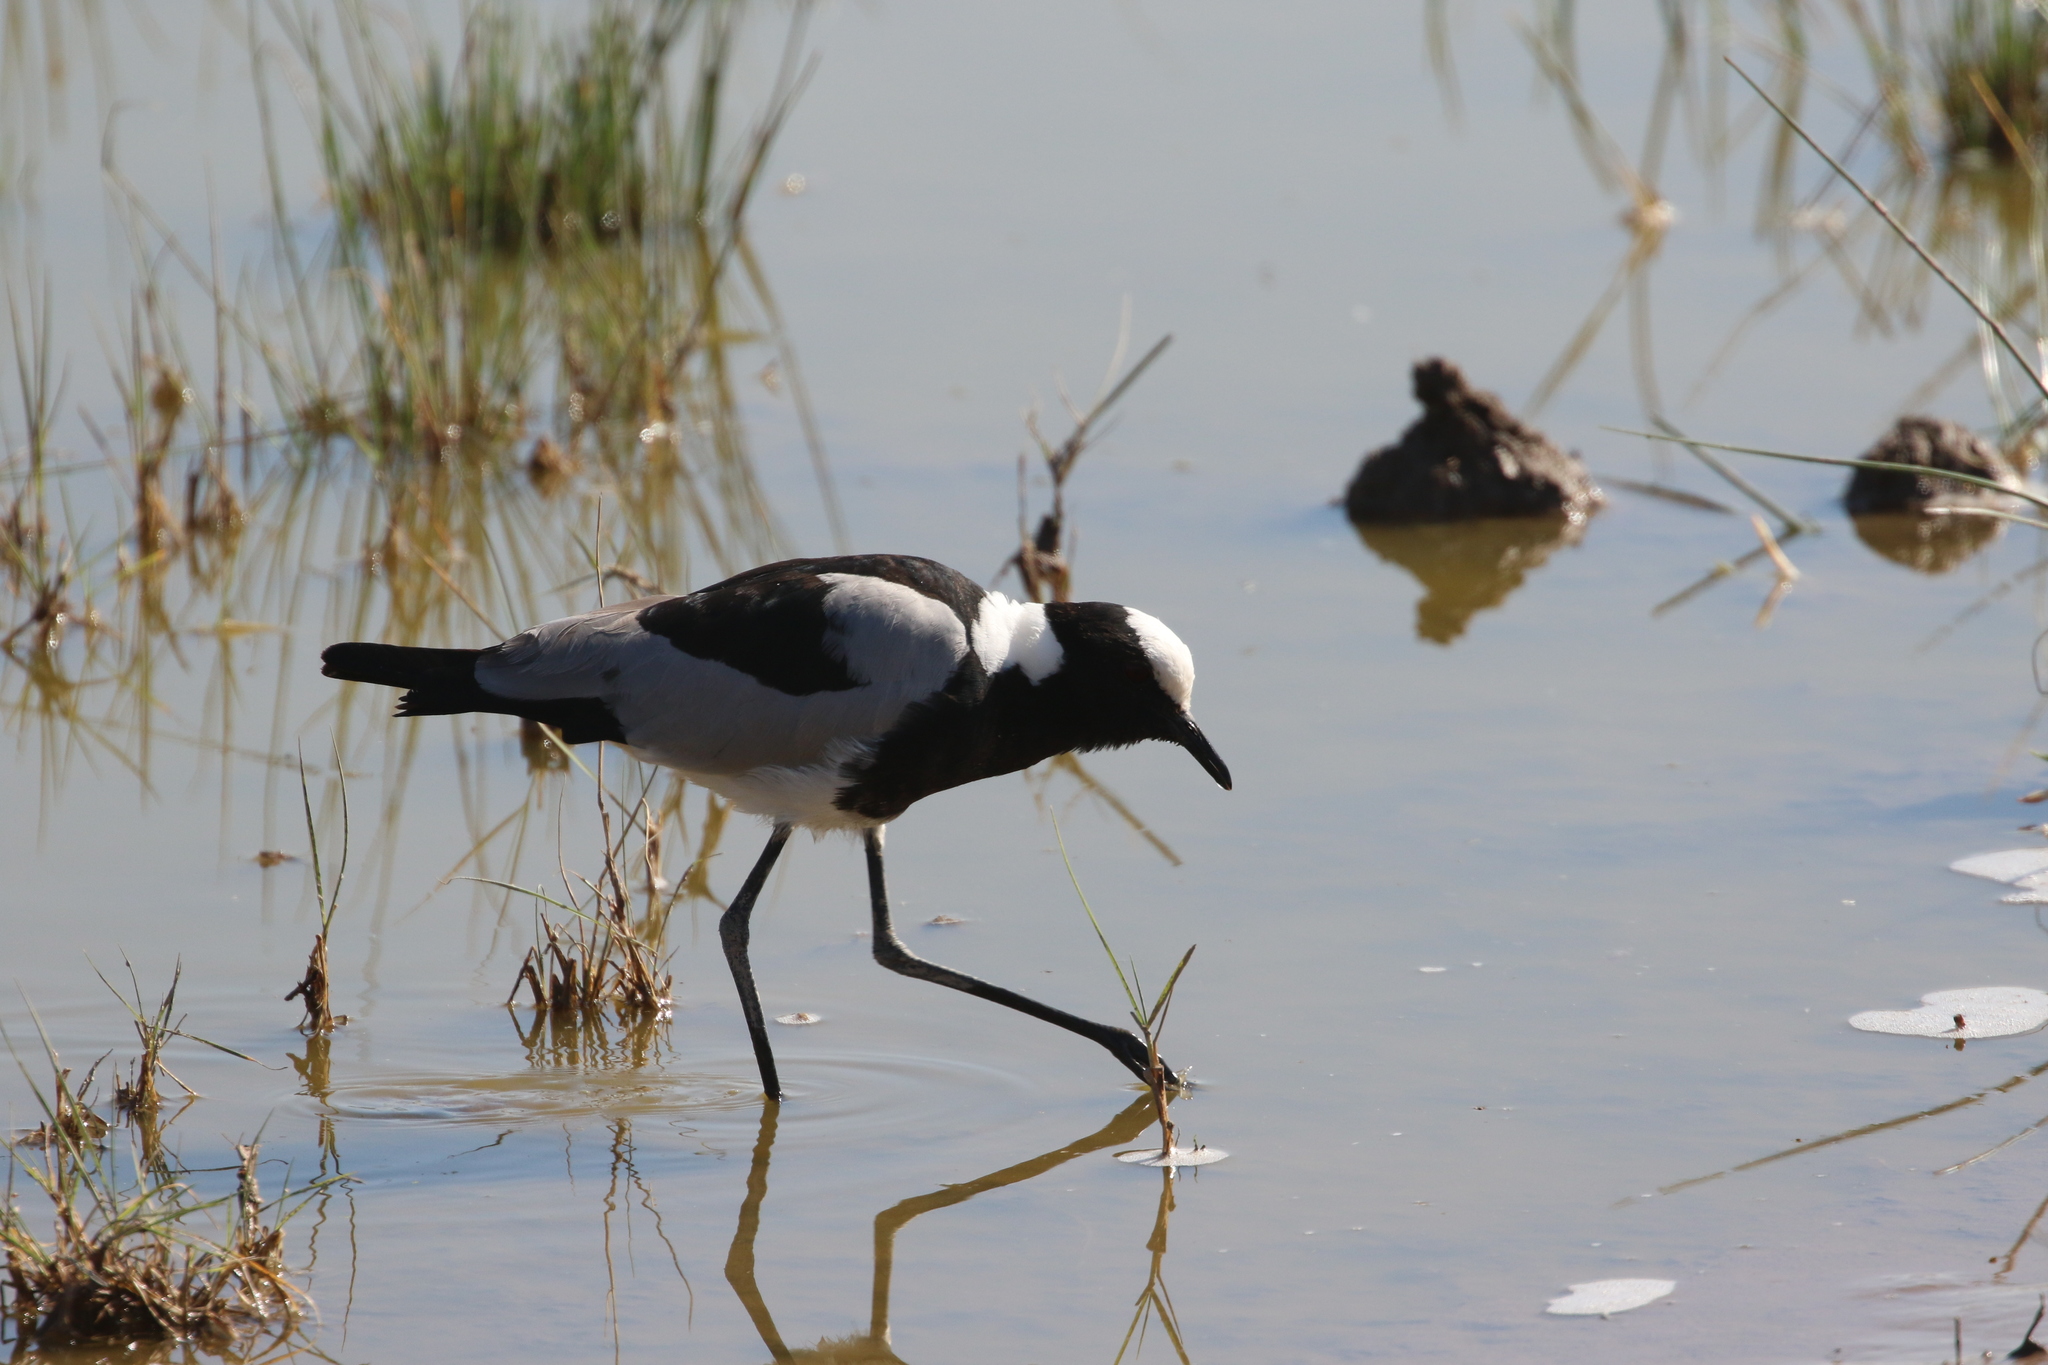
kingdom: Animalia
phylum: Chordata
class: Aves
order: Charadriiformes
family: Charadriidae
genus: Vanellus
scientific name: Vanellus armatus
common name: Blacksmith lapwing
